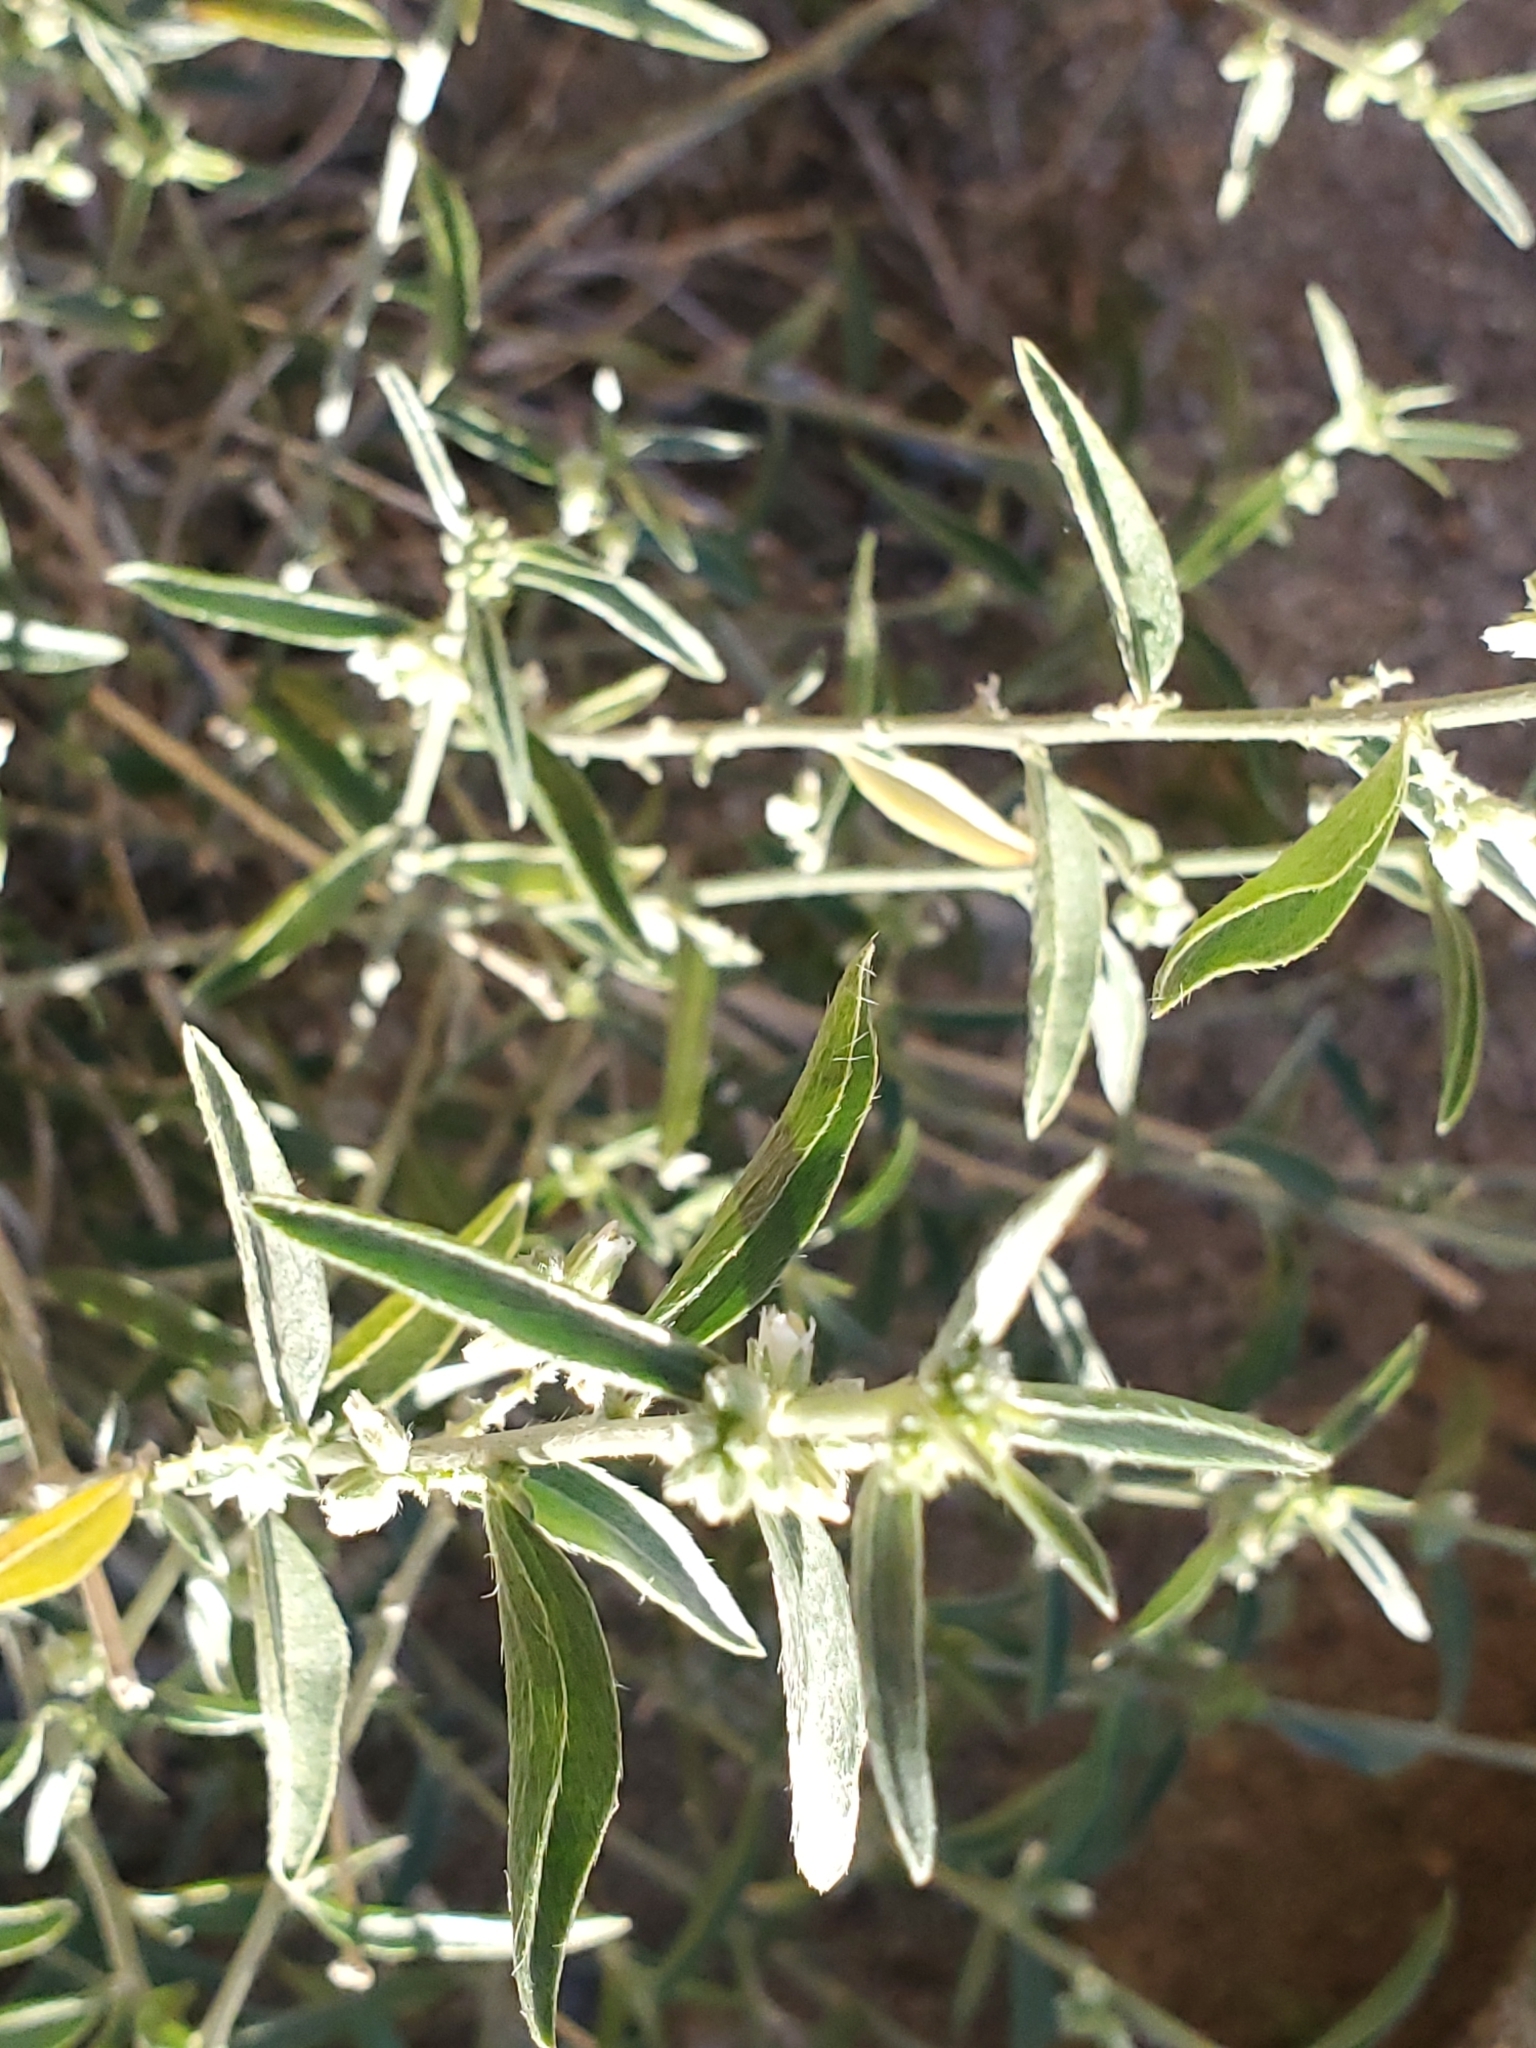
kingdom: Plantae
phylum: Tracheophyta
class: Magnoliopsida
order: Malpighiales
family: Euphorbiaceae
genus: Ditaxis
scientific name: Ditaxis lanceolata
